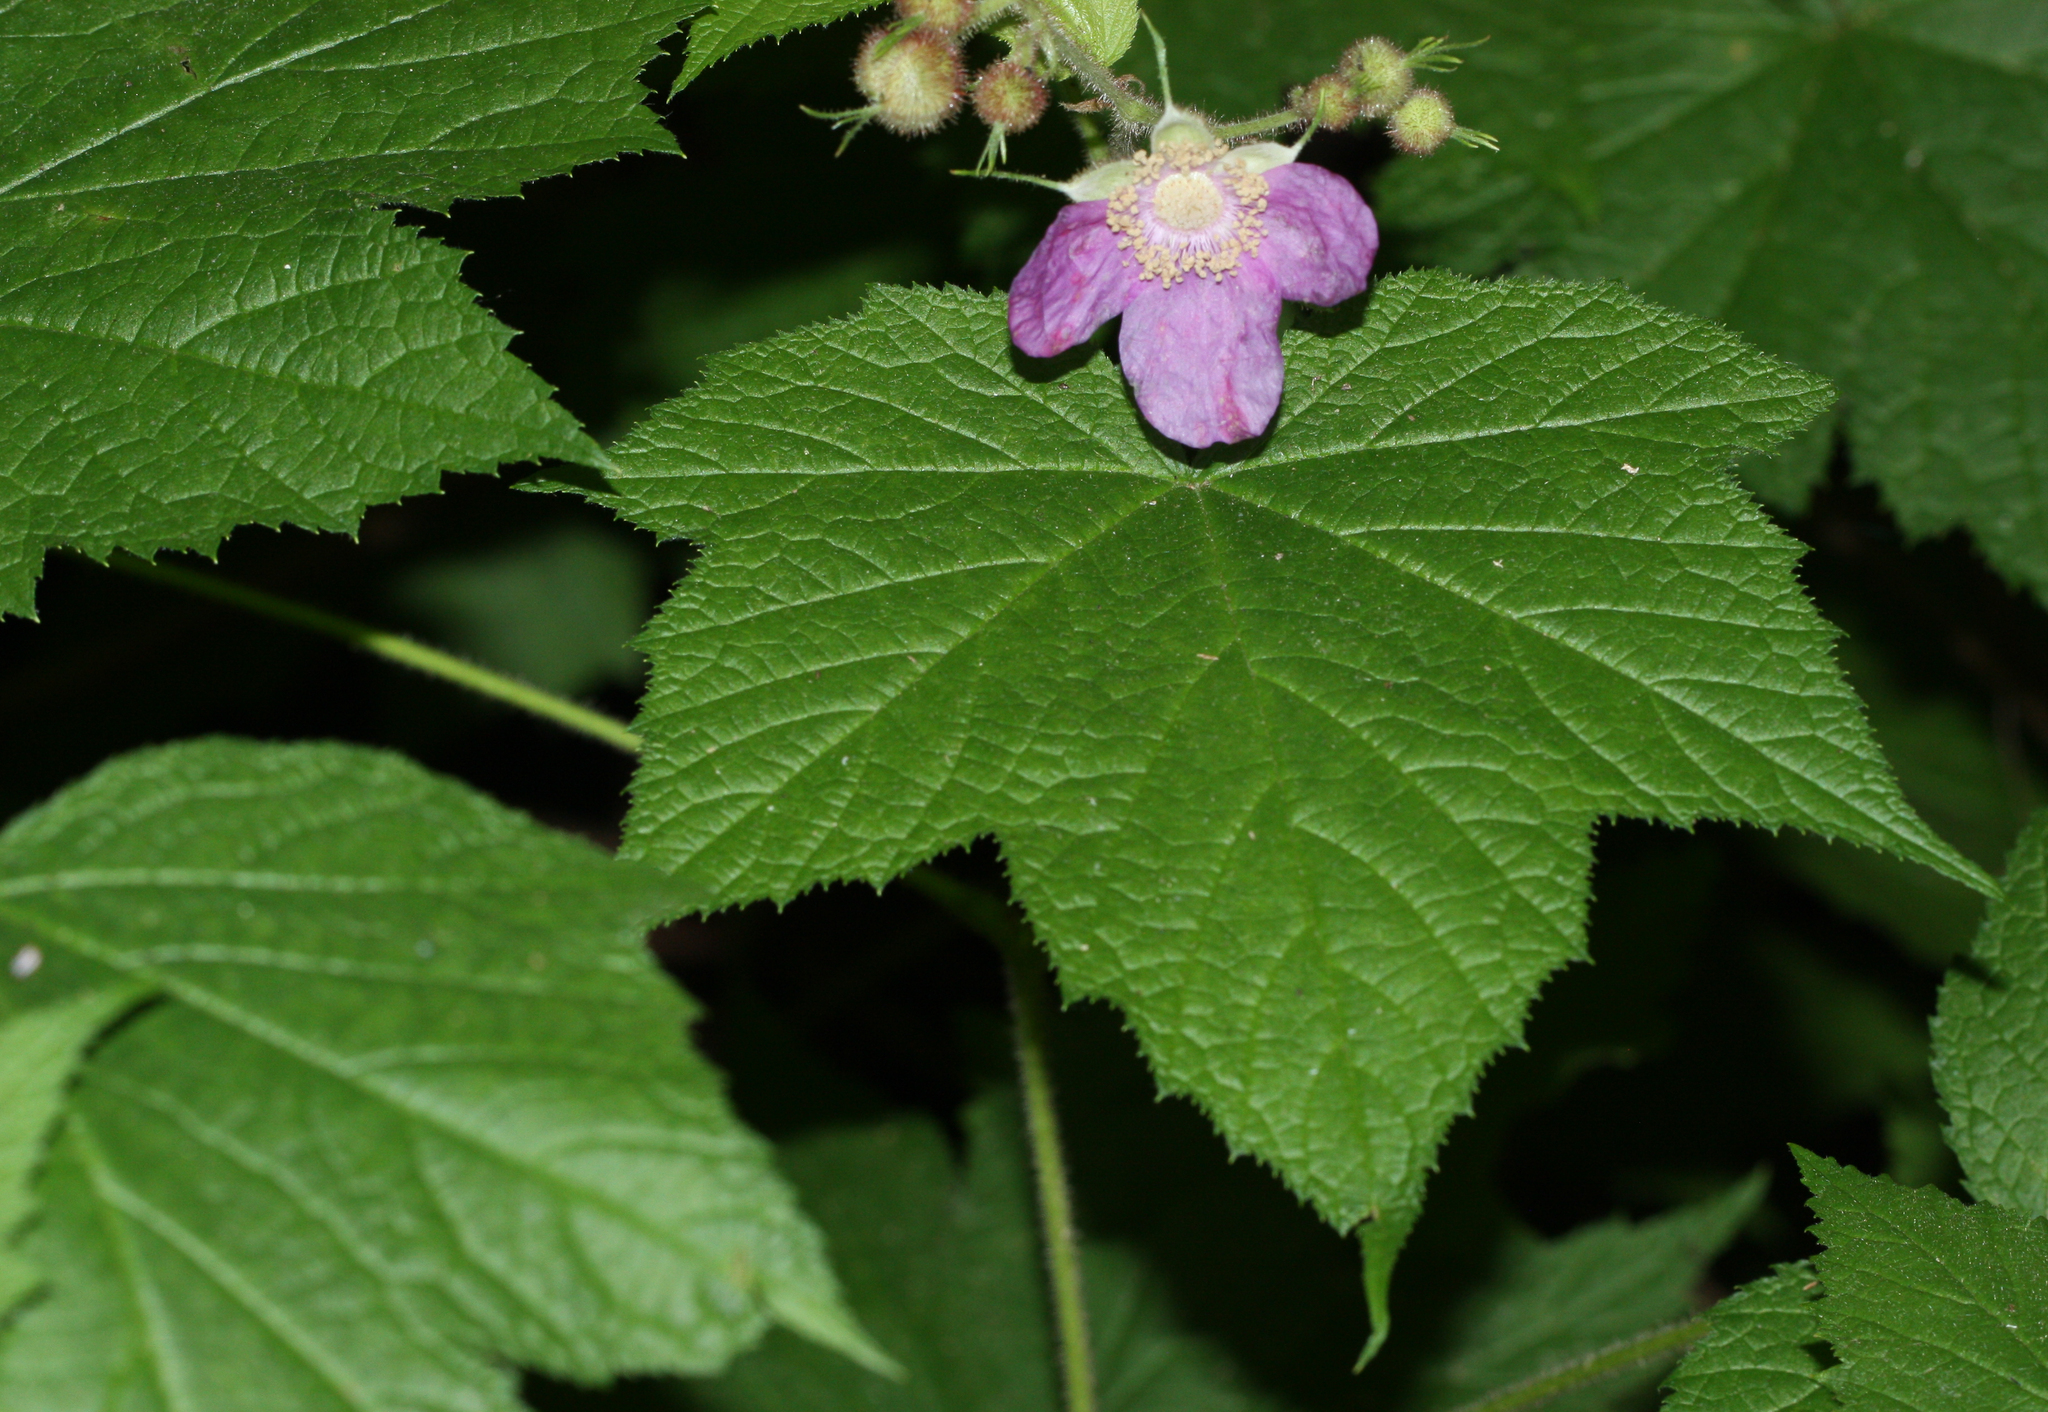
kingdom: Plantae
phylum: Tracheophyta
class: Magnoliopsida
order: Rosales
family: Rosaceae
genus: Rubus
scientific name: Rubus odoratus
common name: Purple-flowered raspberry
